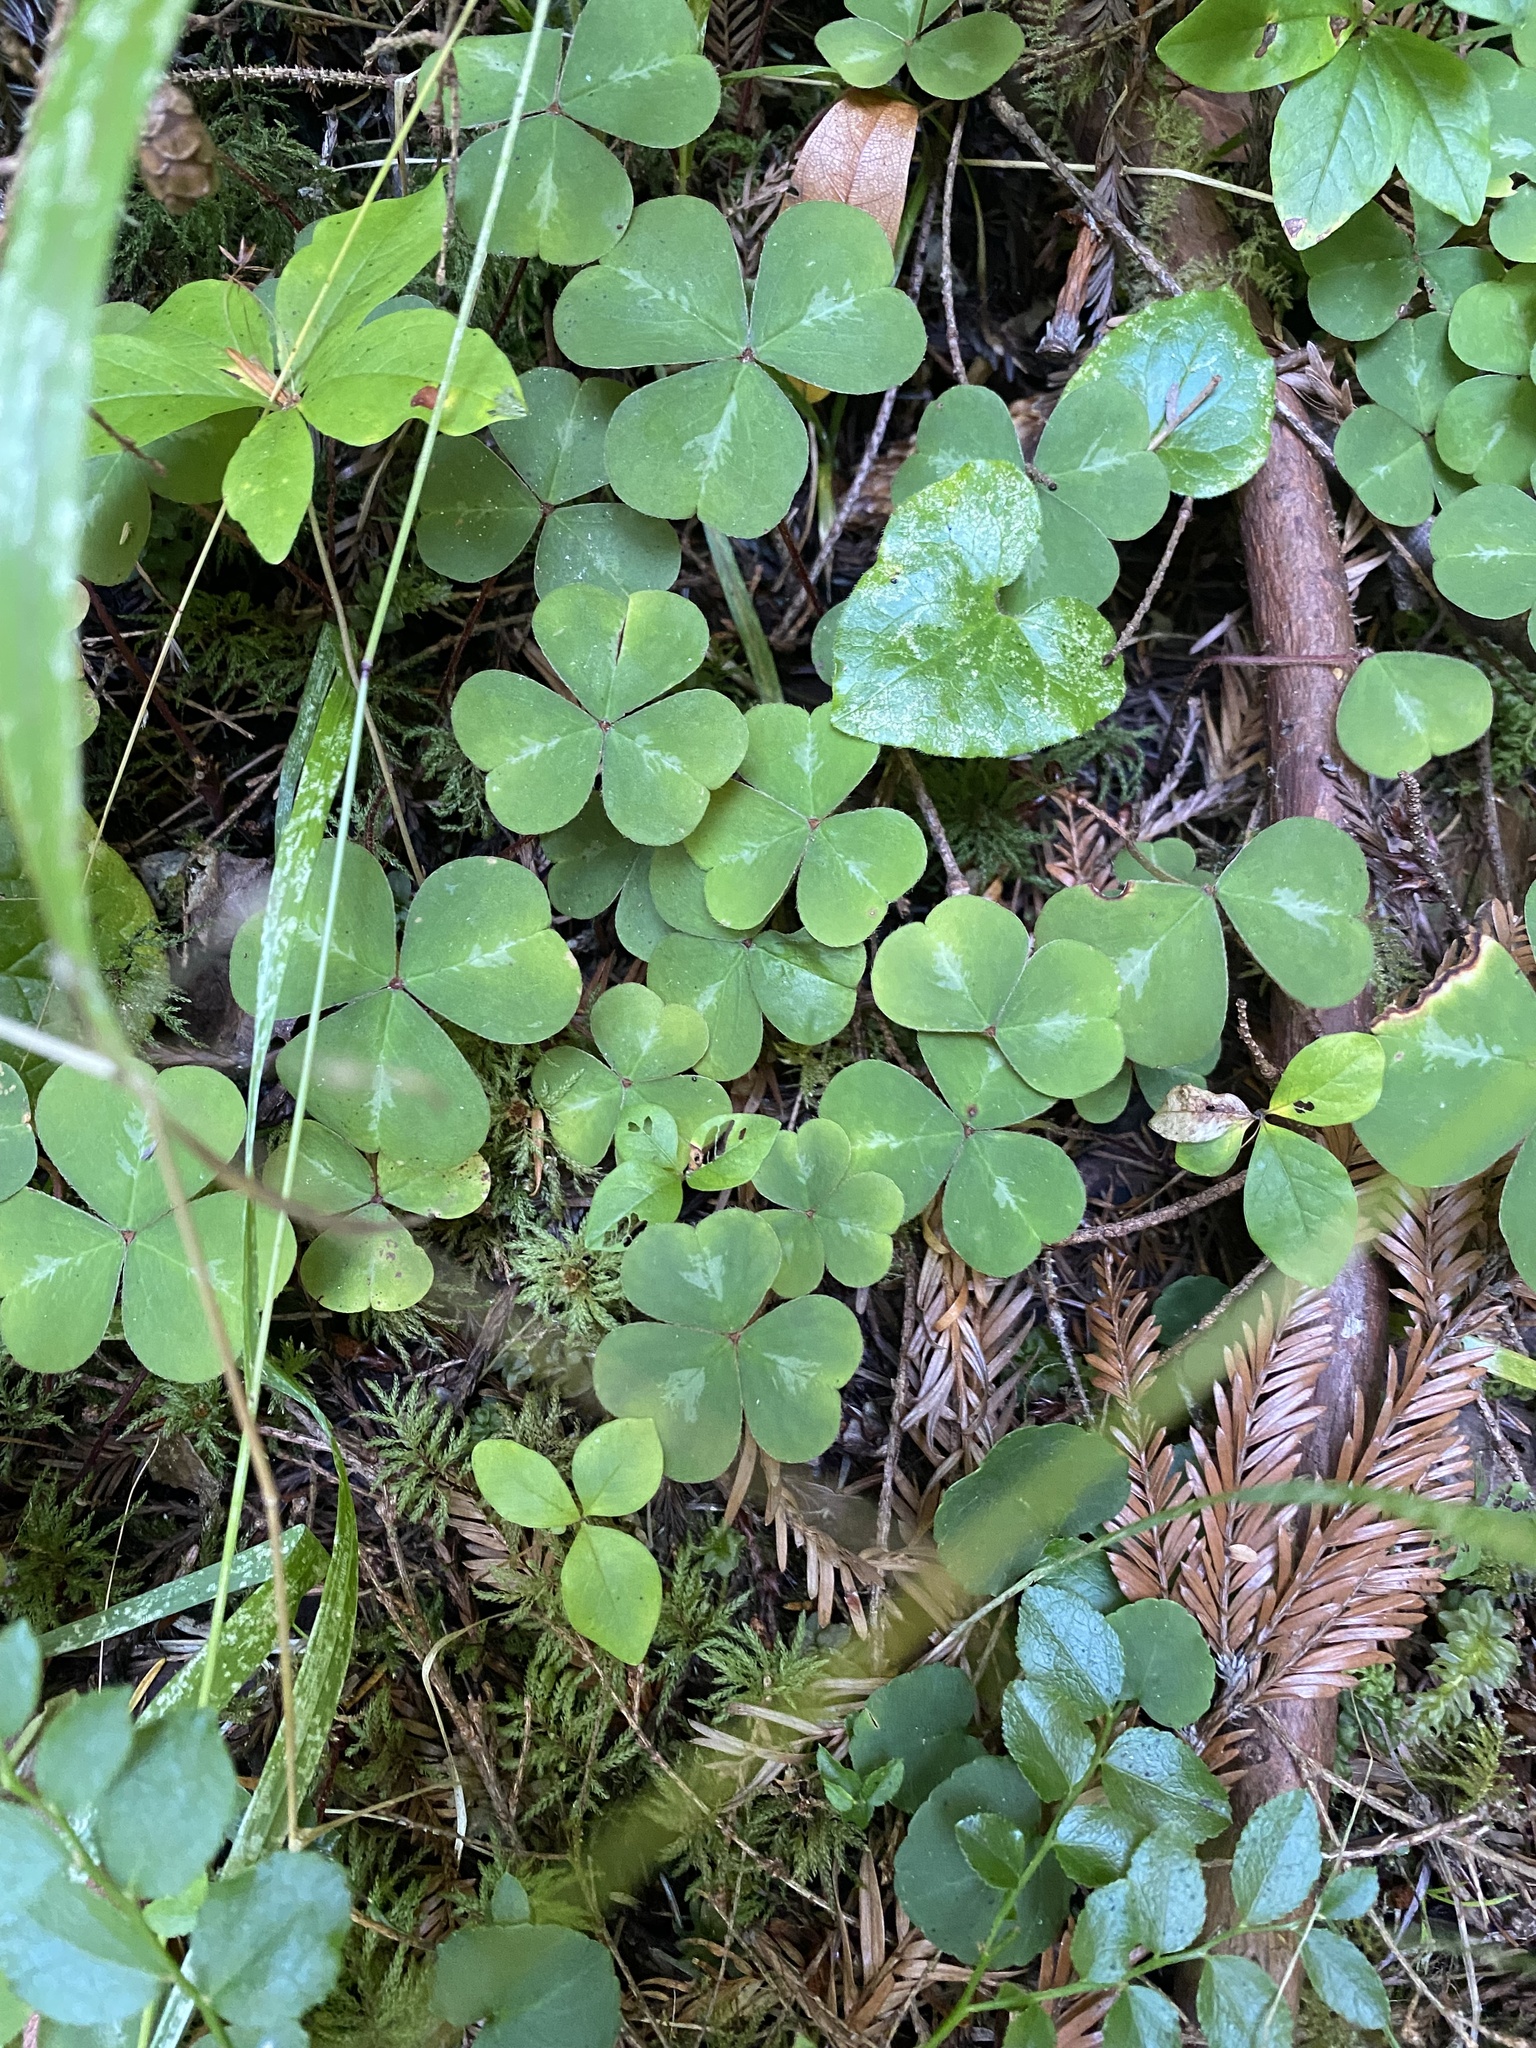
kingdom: Plantae
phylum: Tracheophyta
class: Magnoliopsida
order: Oxalidales
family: Oxalidaceae
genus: Oxalis
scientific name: Oxalis oregana
